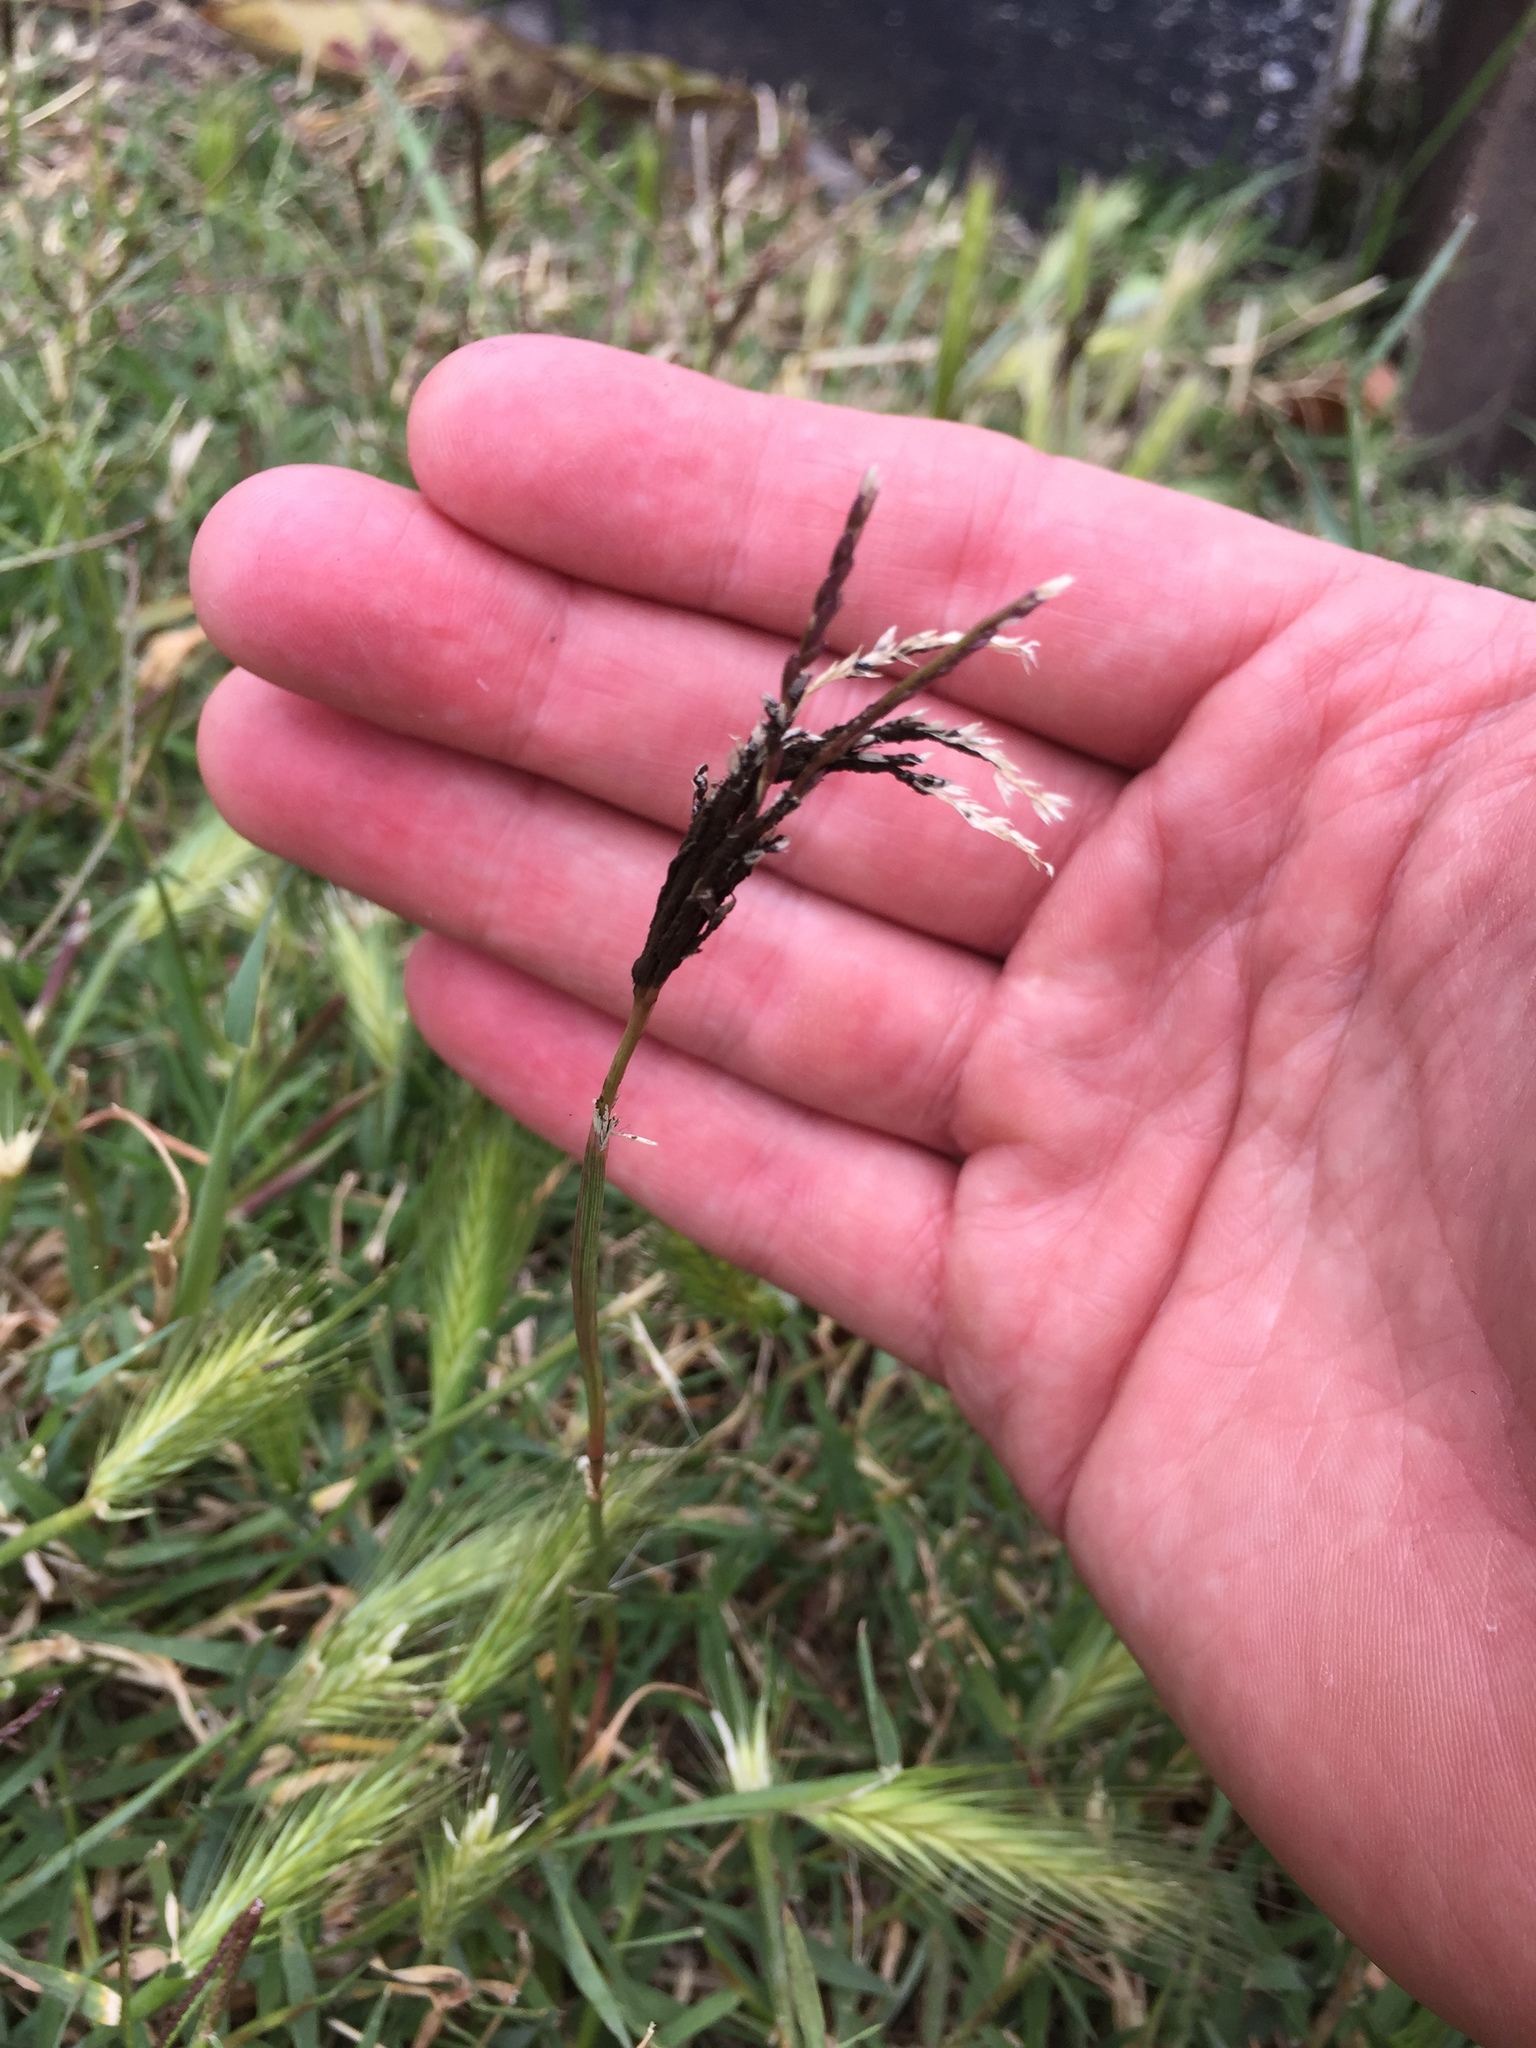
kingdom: Fungi
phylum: Basidiomycota
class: Ustilaginomycetes
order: Ustilaginales
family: Ustilaginaceae
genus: Ustilago
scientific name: Ustilago cynodontis
